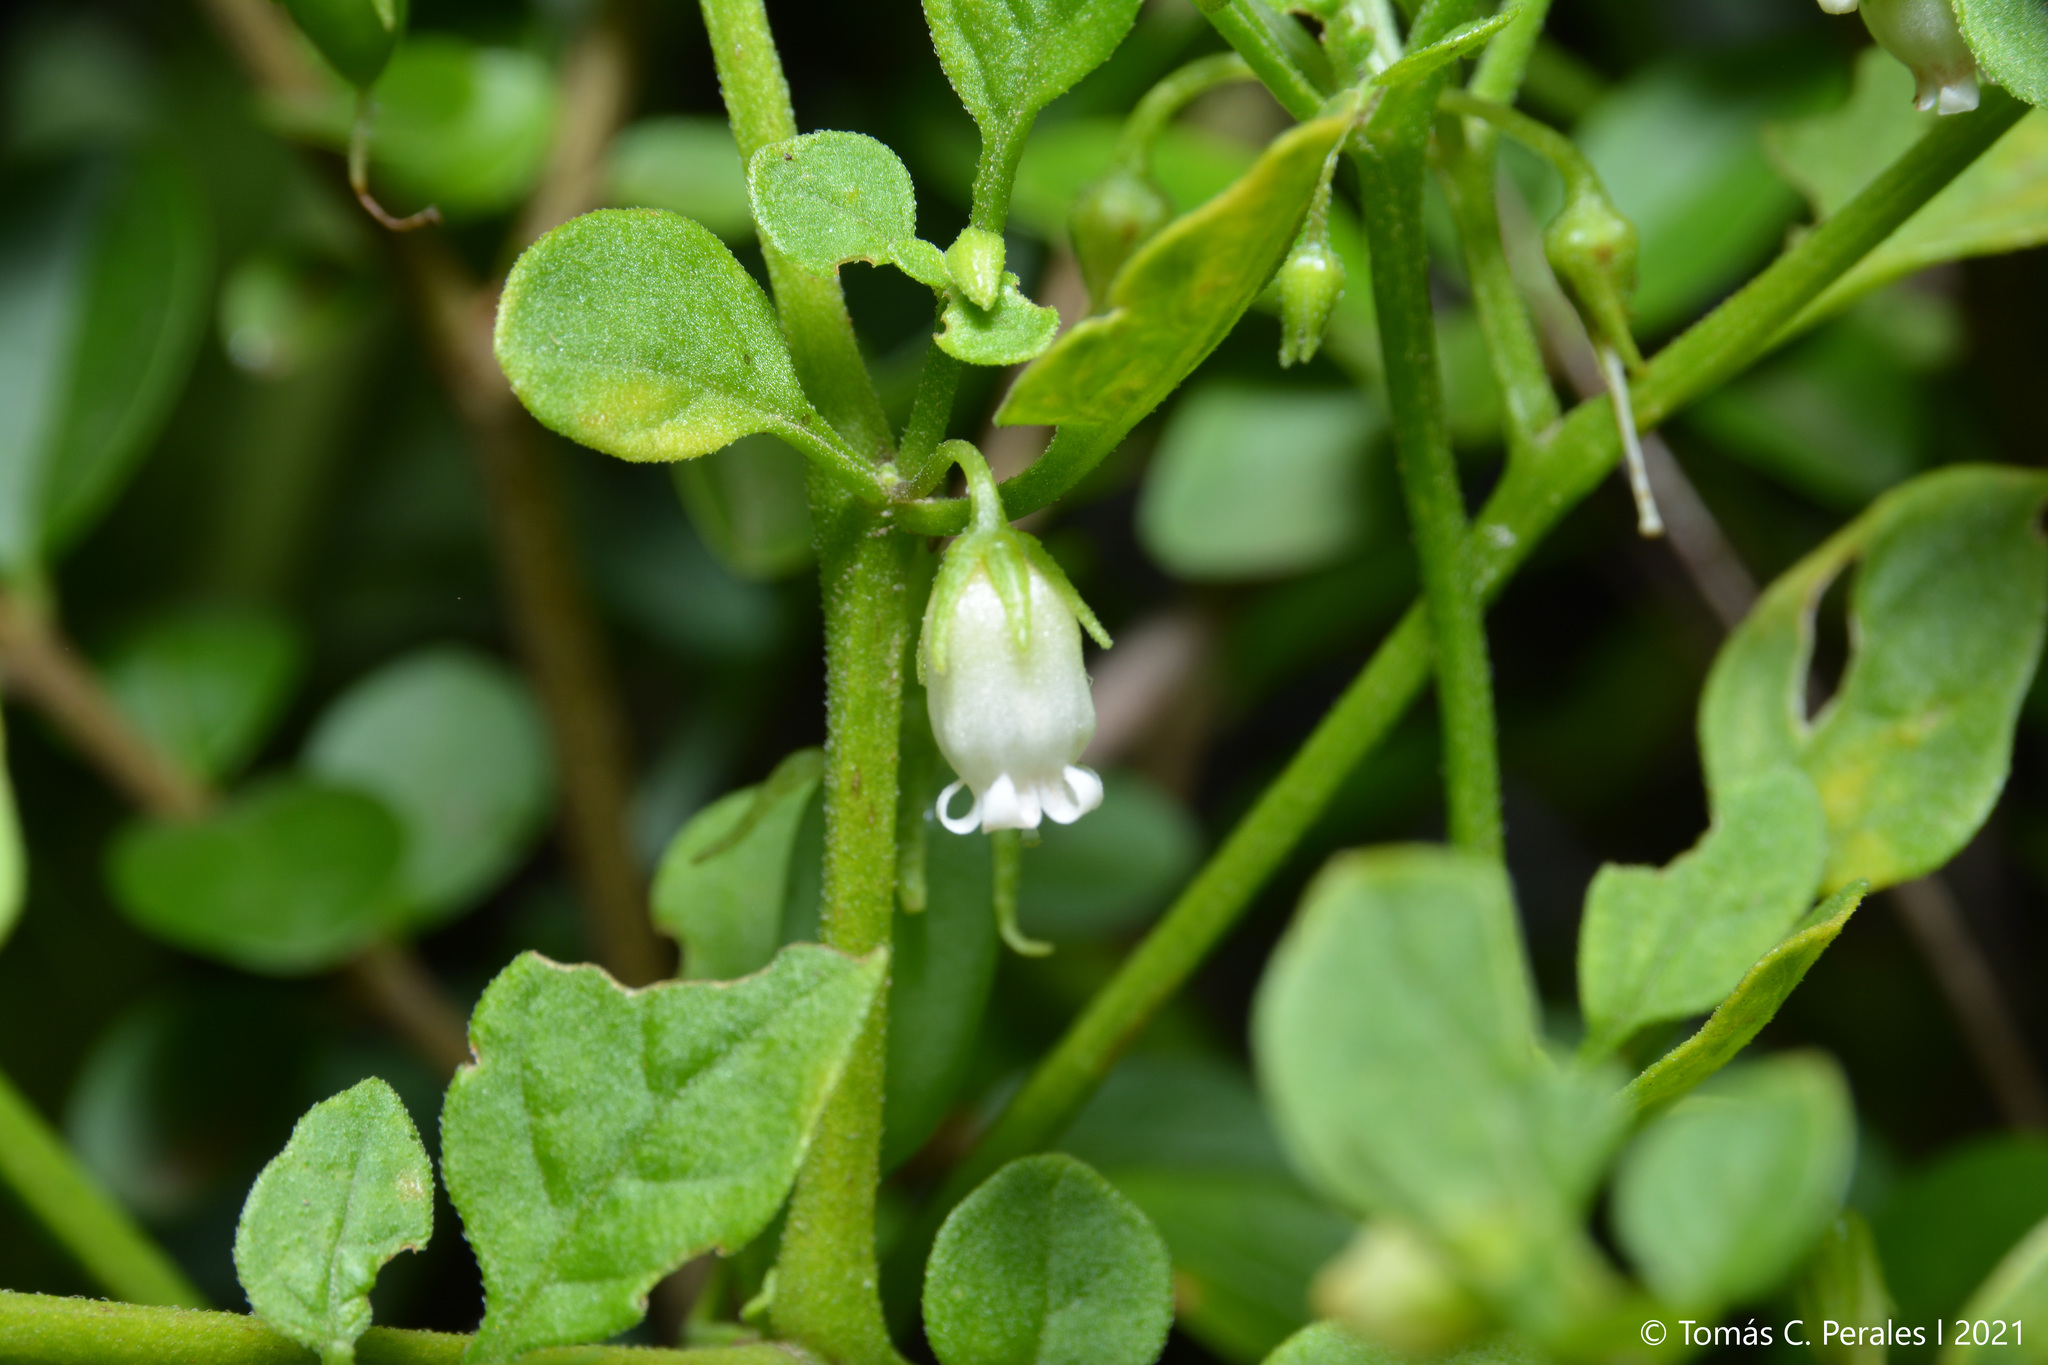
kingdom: Plantae
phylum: Tracheophyta
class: Magnoliopsida
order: Solanales
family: Solanaceae
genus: Salpichroa
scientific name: Salpichroa origanifolia
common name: Lily-of-the-valley-vine
